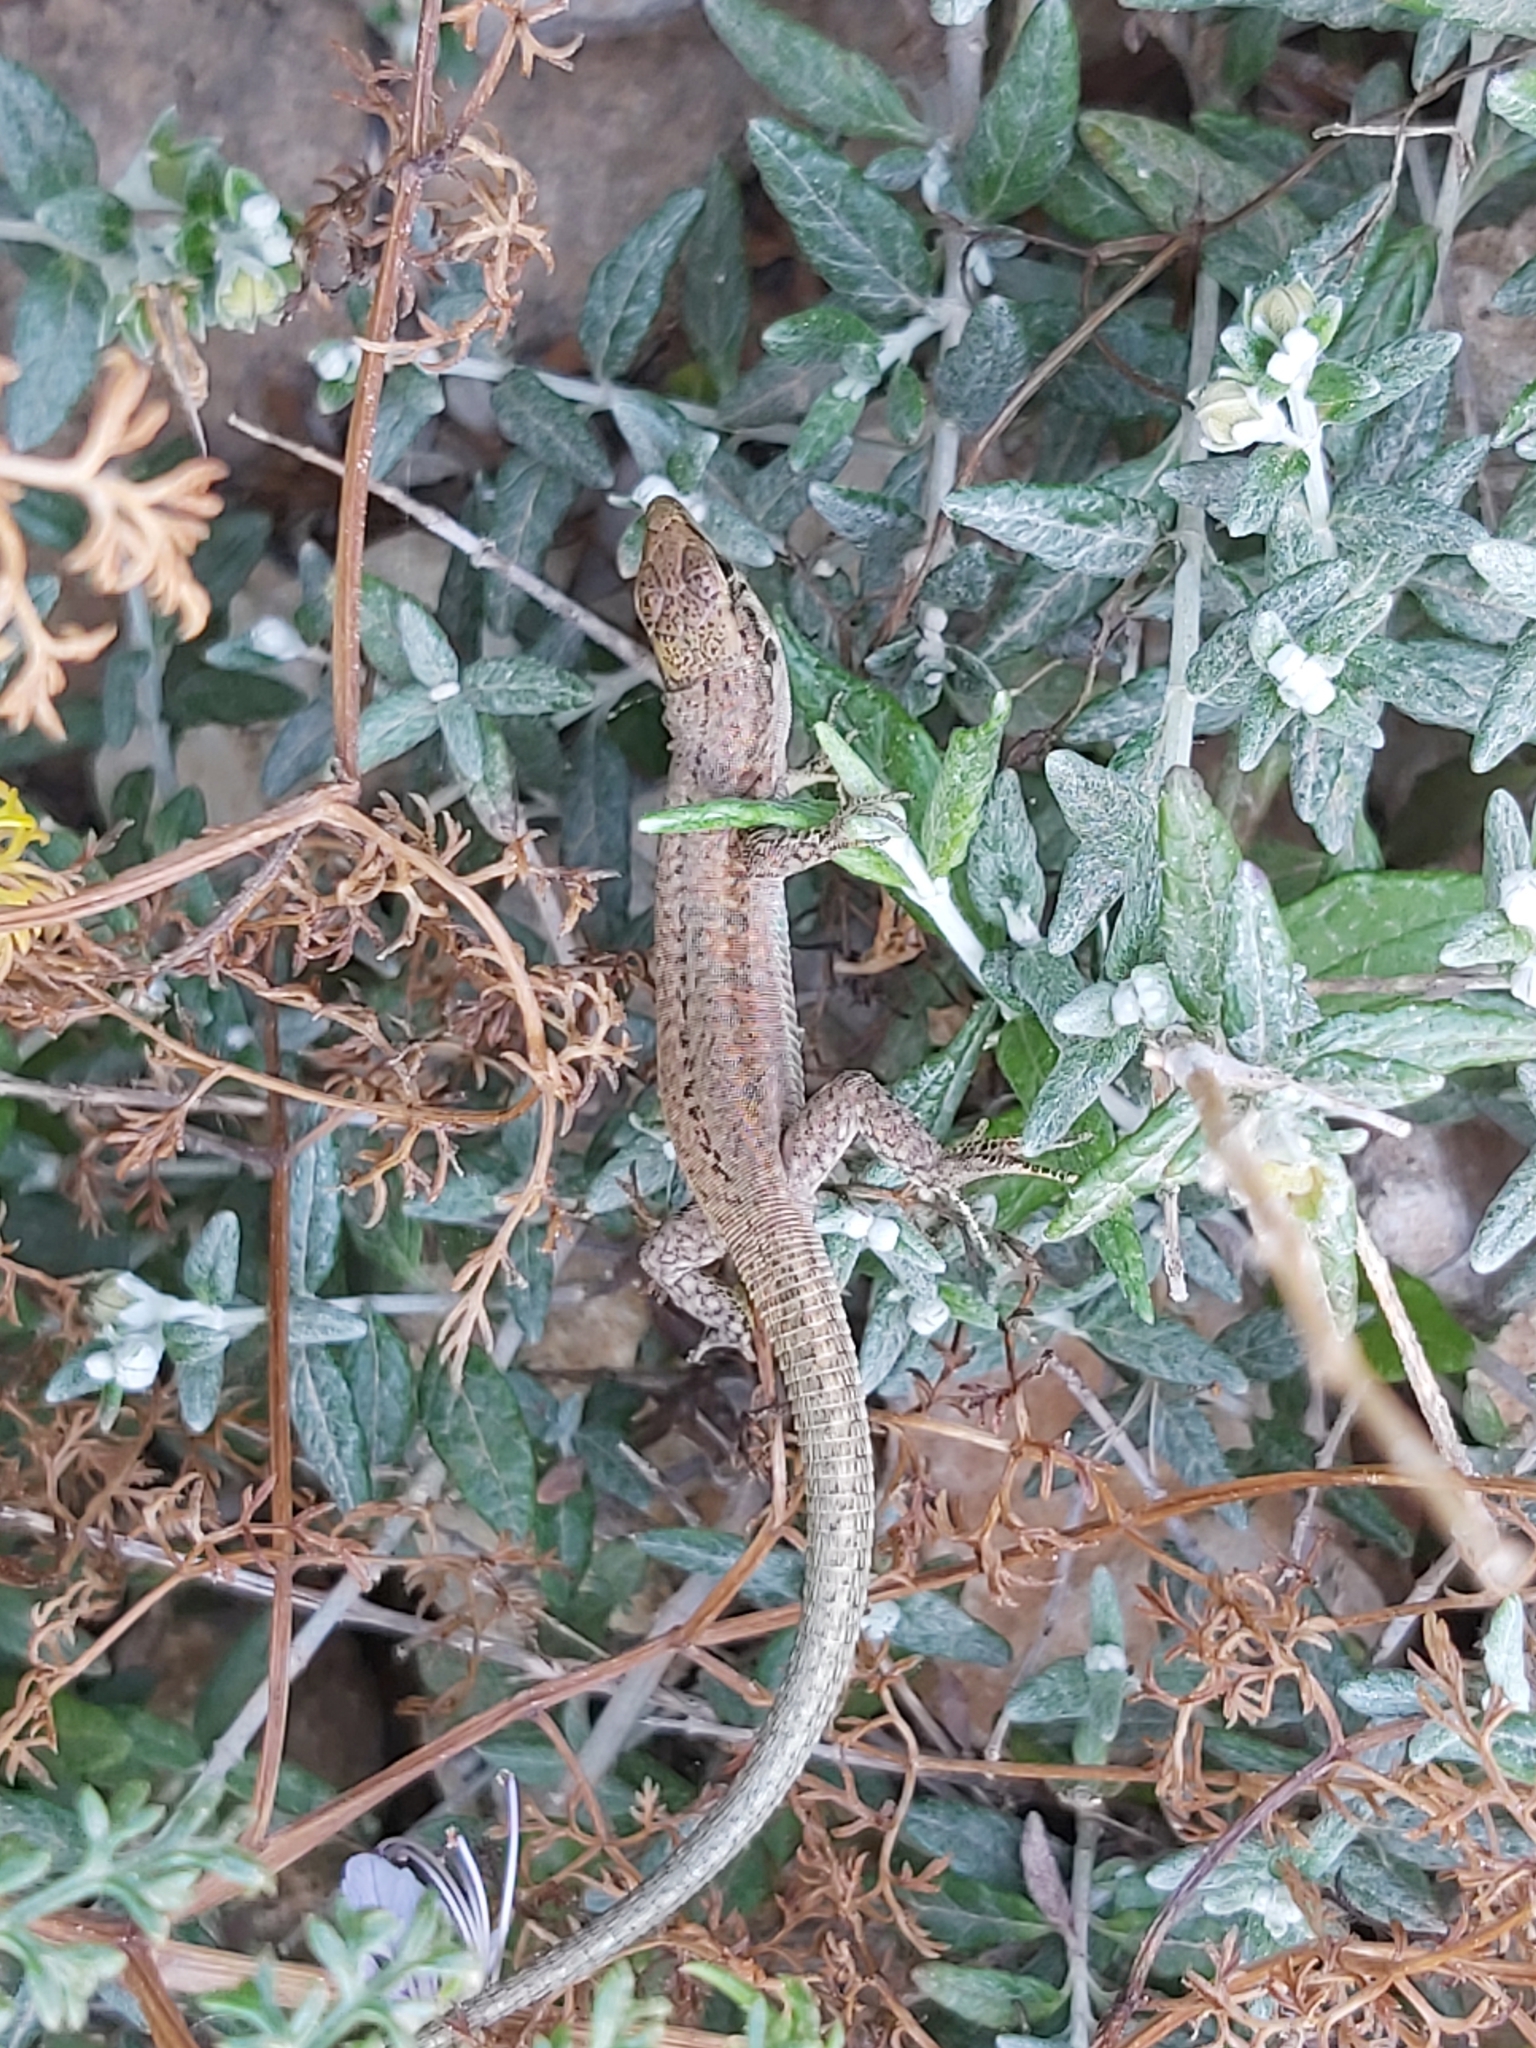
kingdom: Animalia
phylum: Chordata
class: Squamata
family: Lacertidae
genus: Podarcis
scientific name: Podarcis filfolensis
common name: Maltese wall lizard
